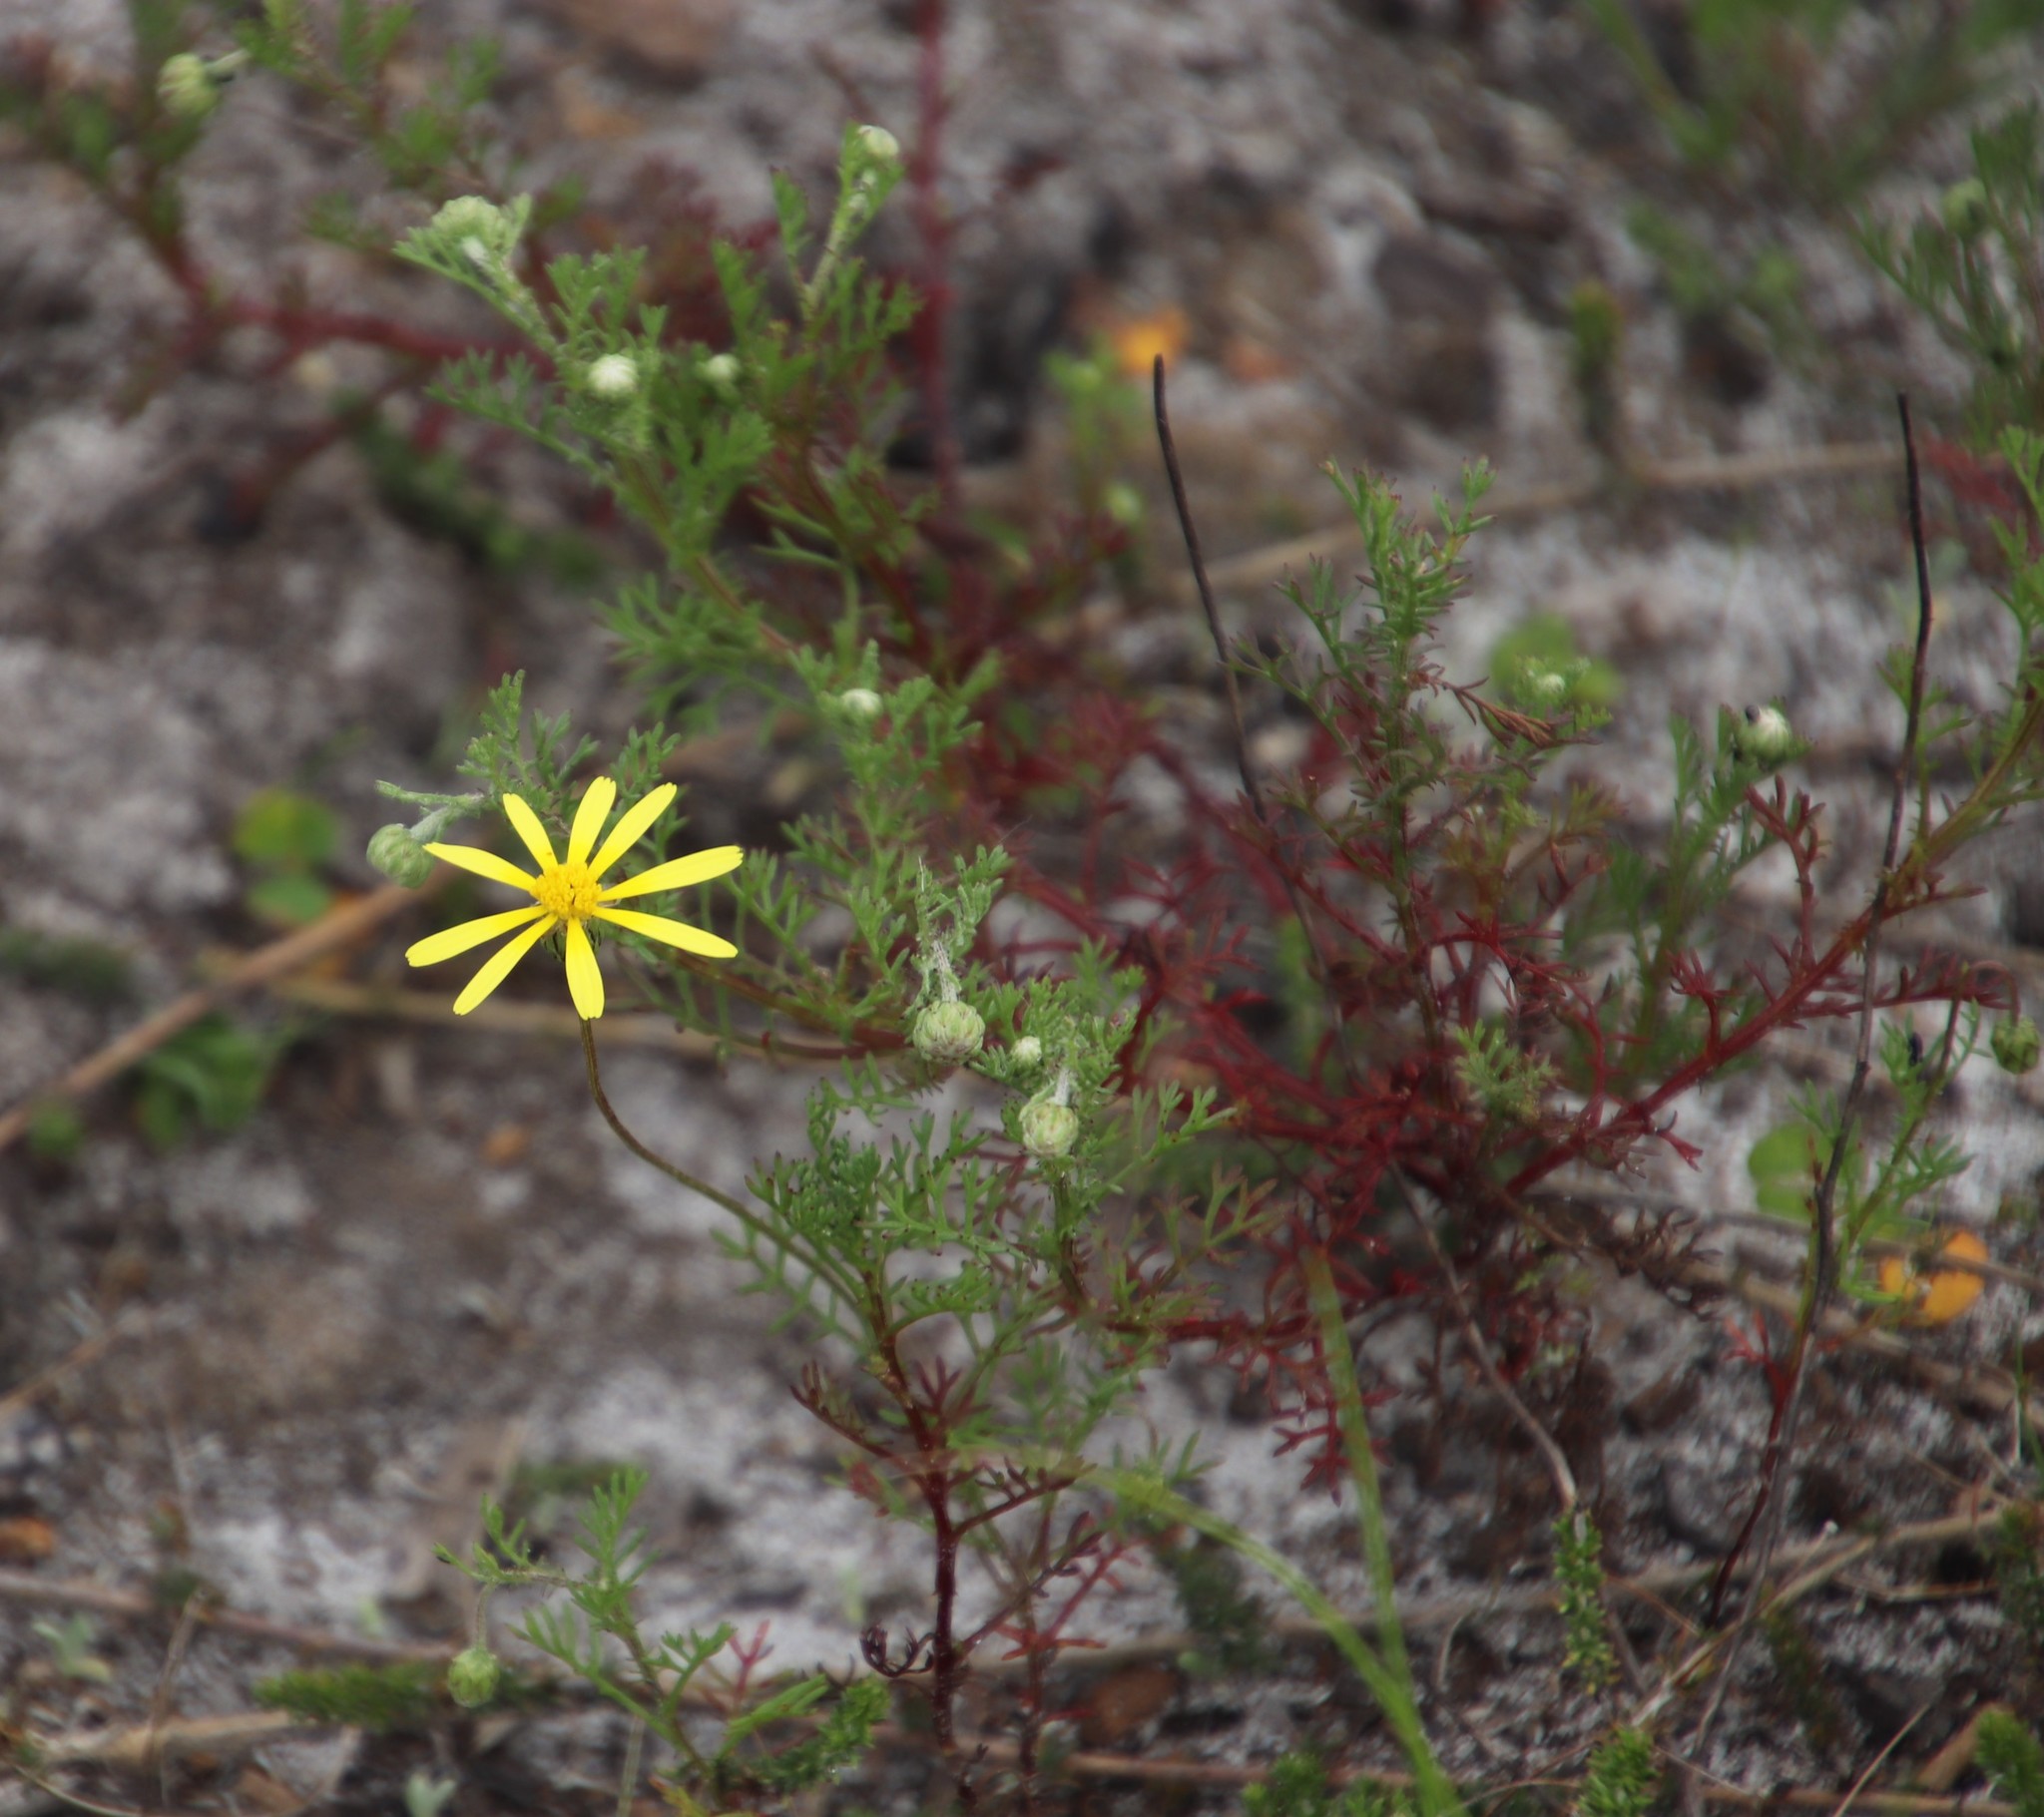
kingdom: Plantae
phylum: Tracheophyta
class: Magnoliopsida
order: Asterales
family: Asteraceae
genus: Ursinia
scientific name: Ursinia anthemoides
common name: Ursinia
